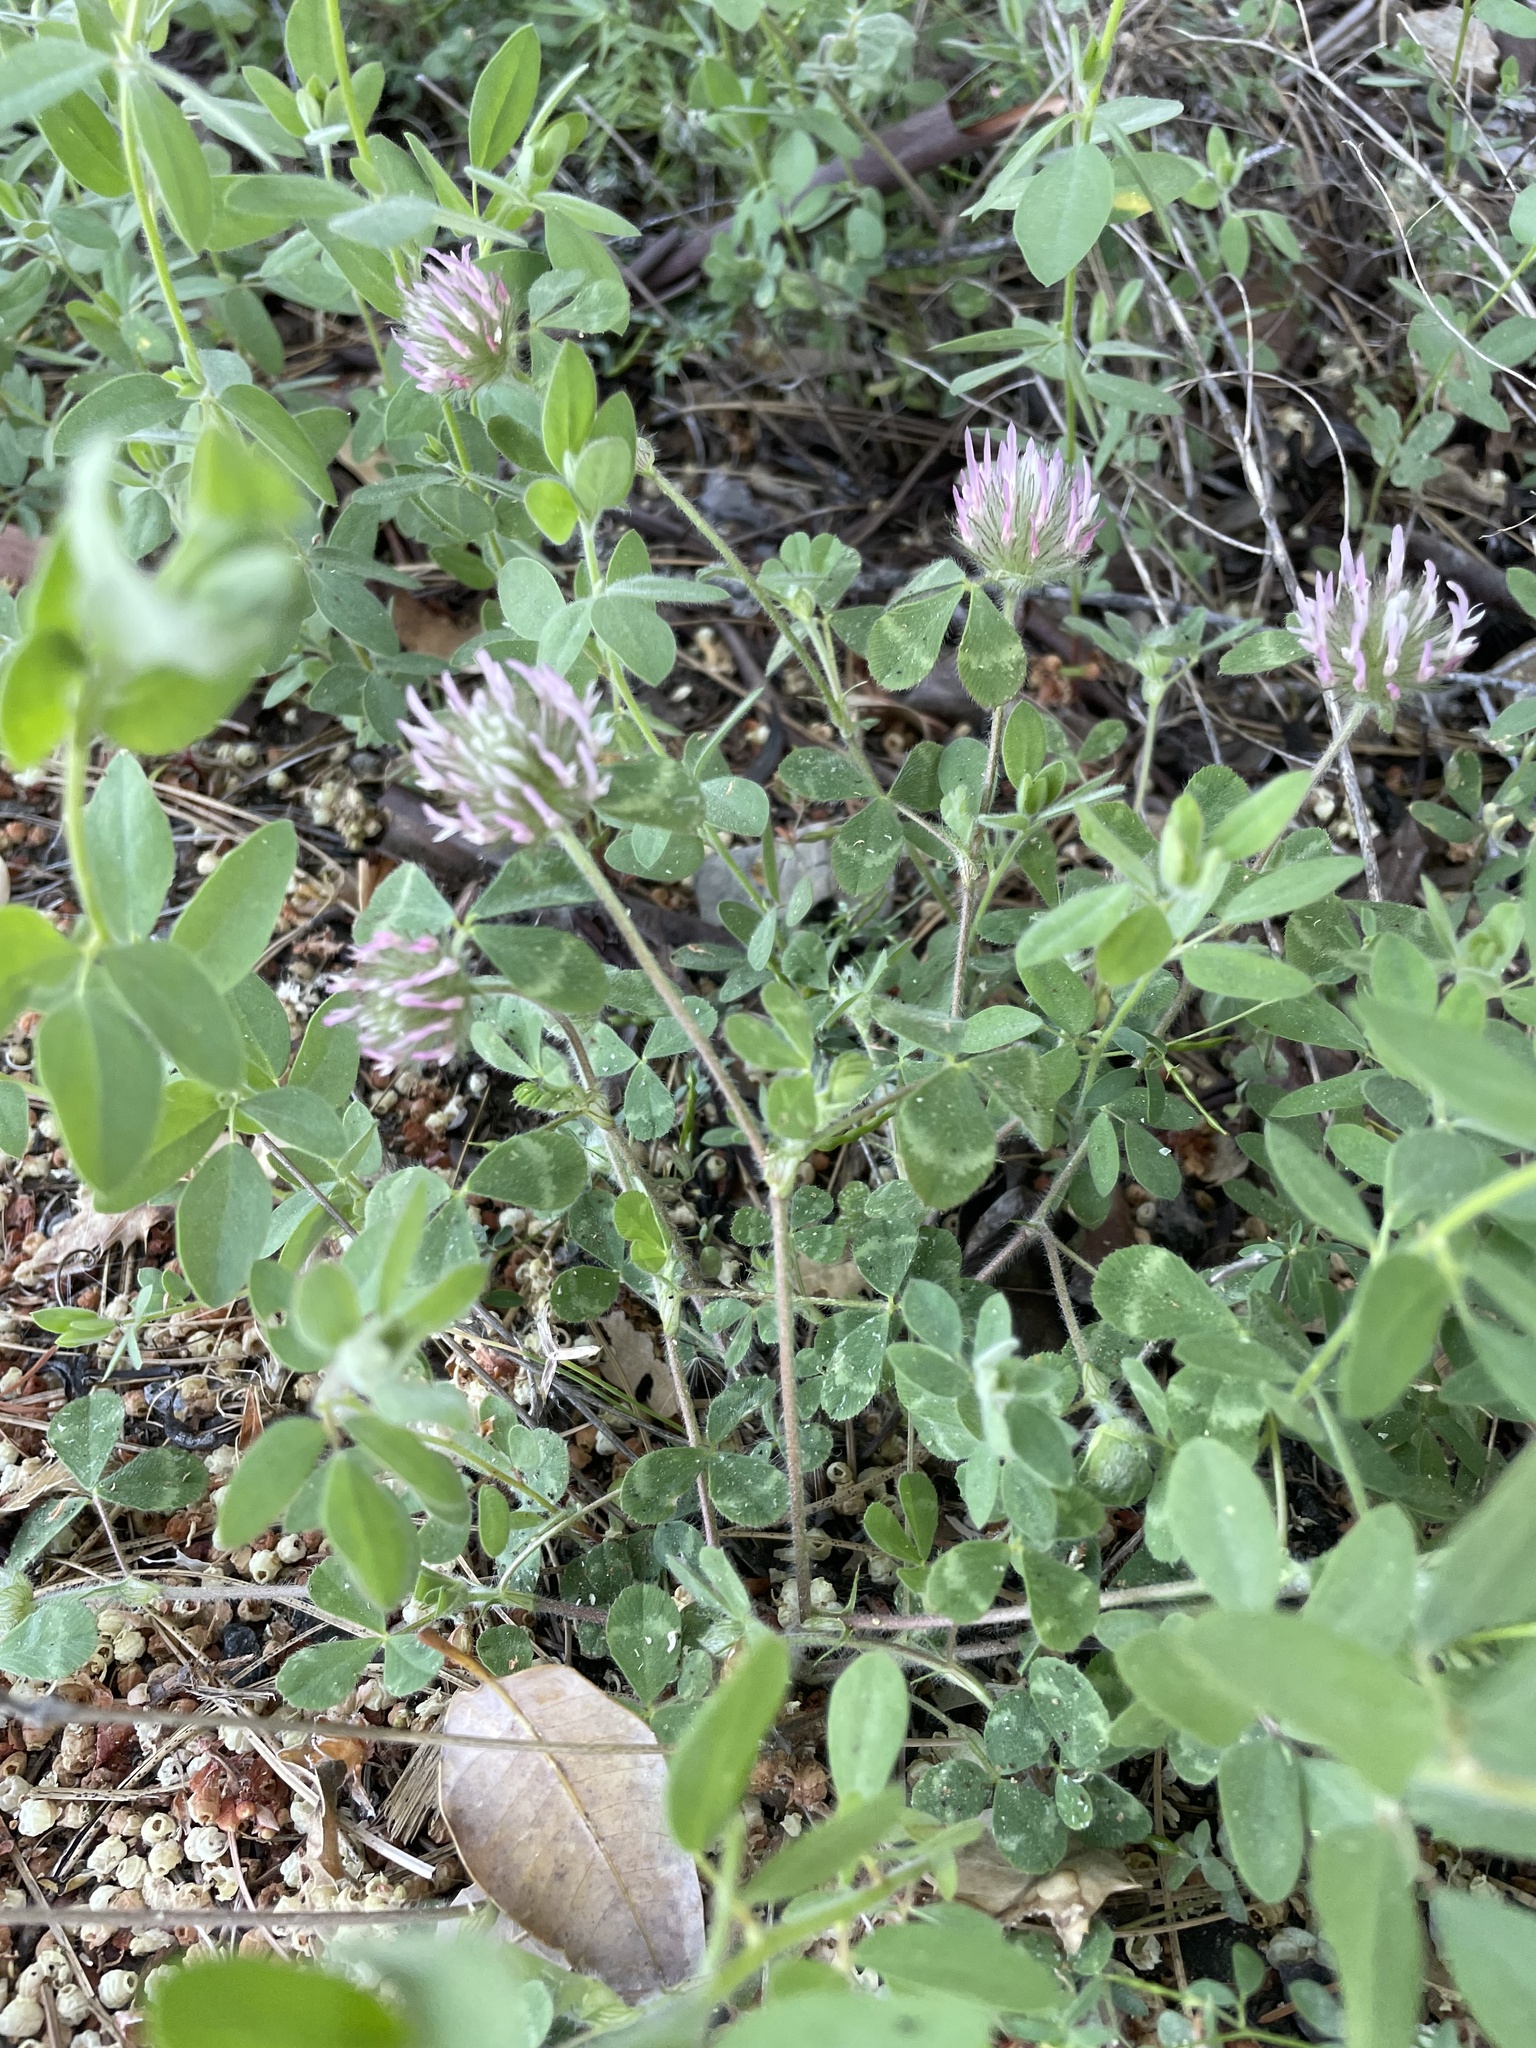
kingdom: Plantae
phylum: Tracheophyta
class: Magnoliopsida
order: Fabales
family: Fabaceae
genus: Trifolium
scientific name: Trifolium hirtum
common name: Rose clover
